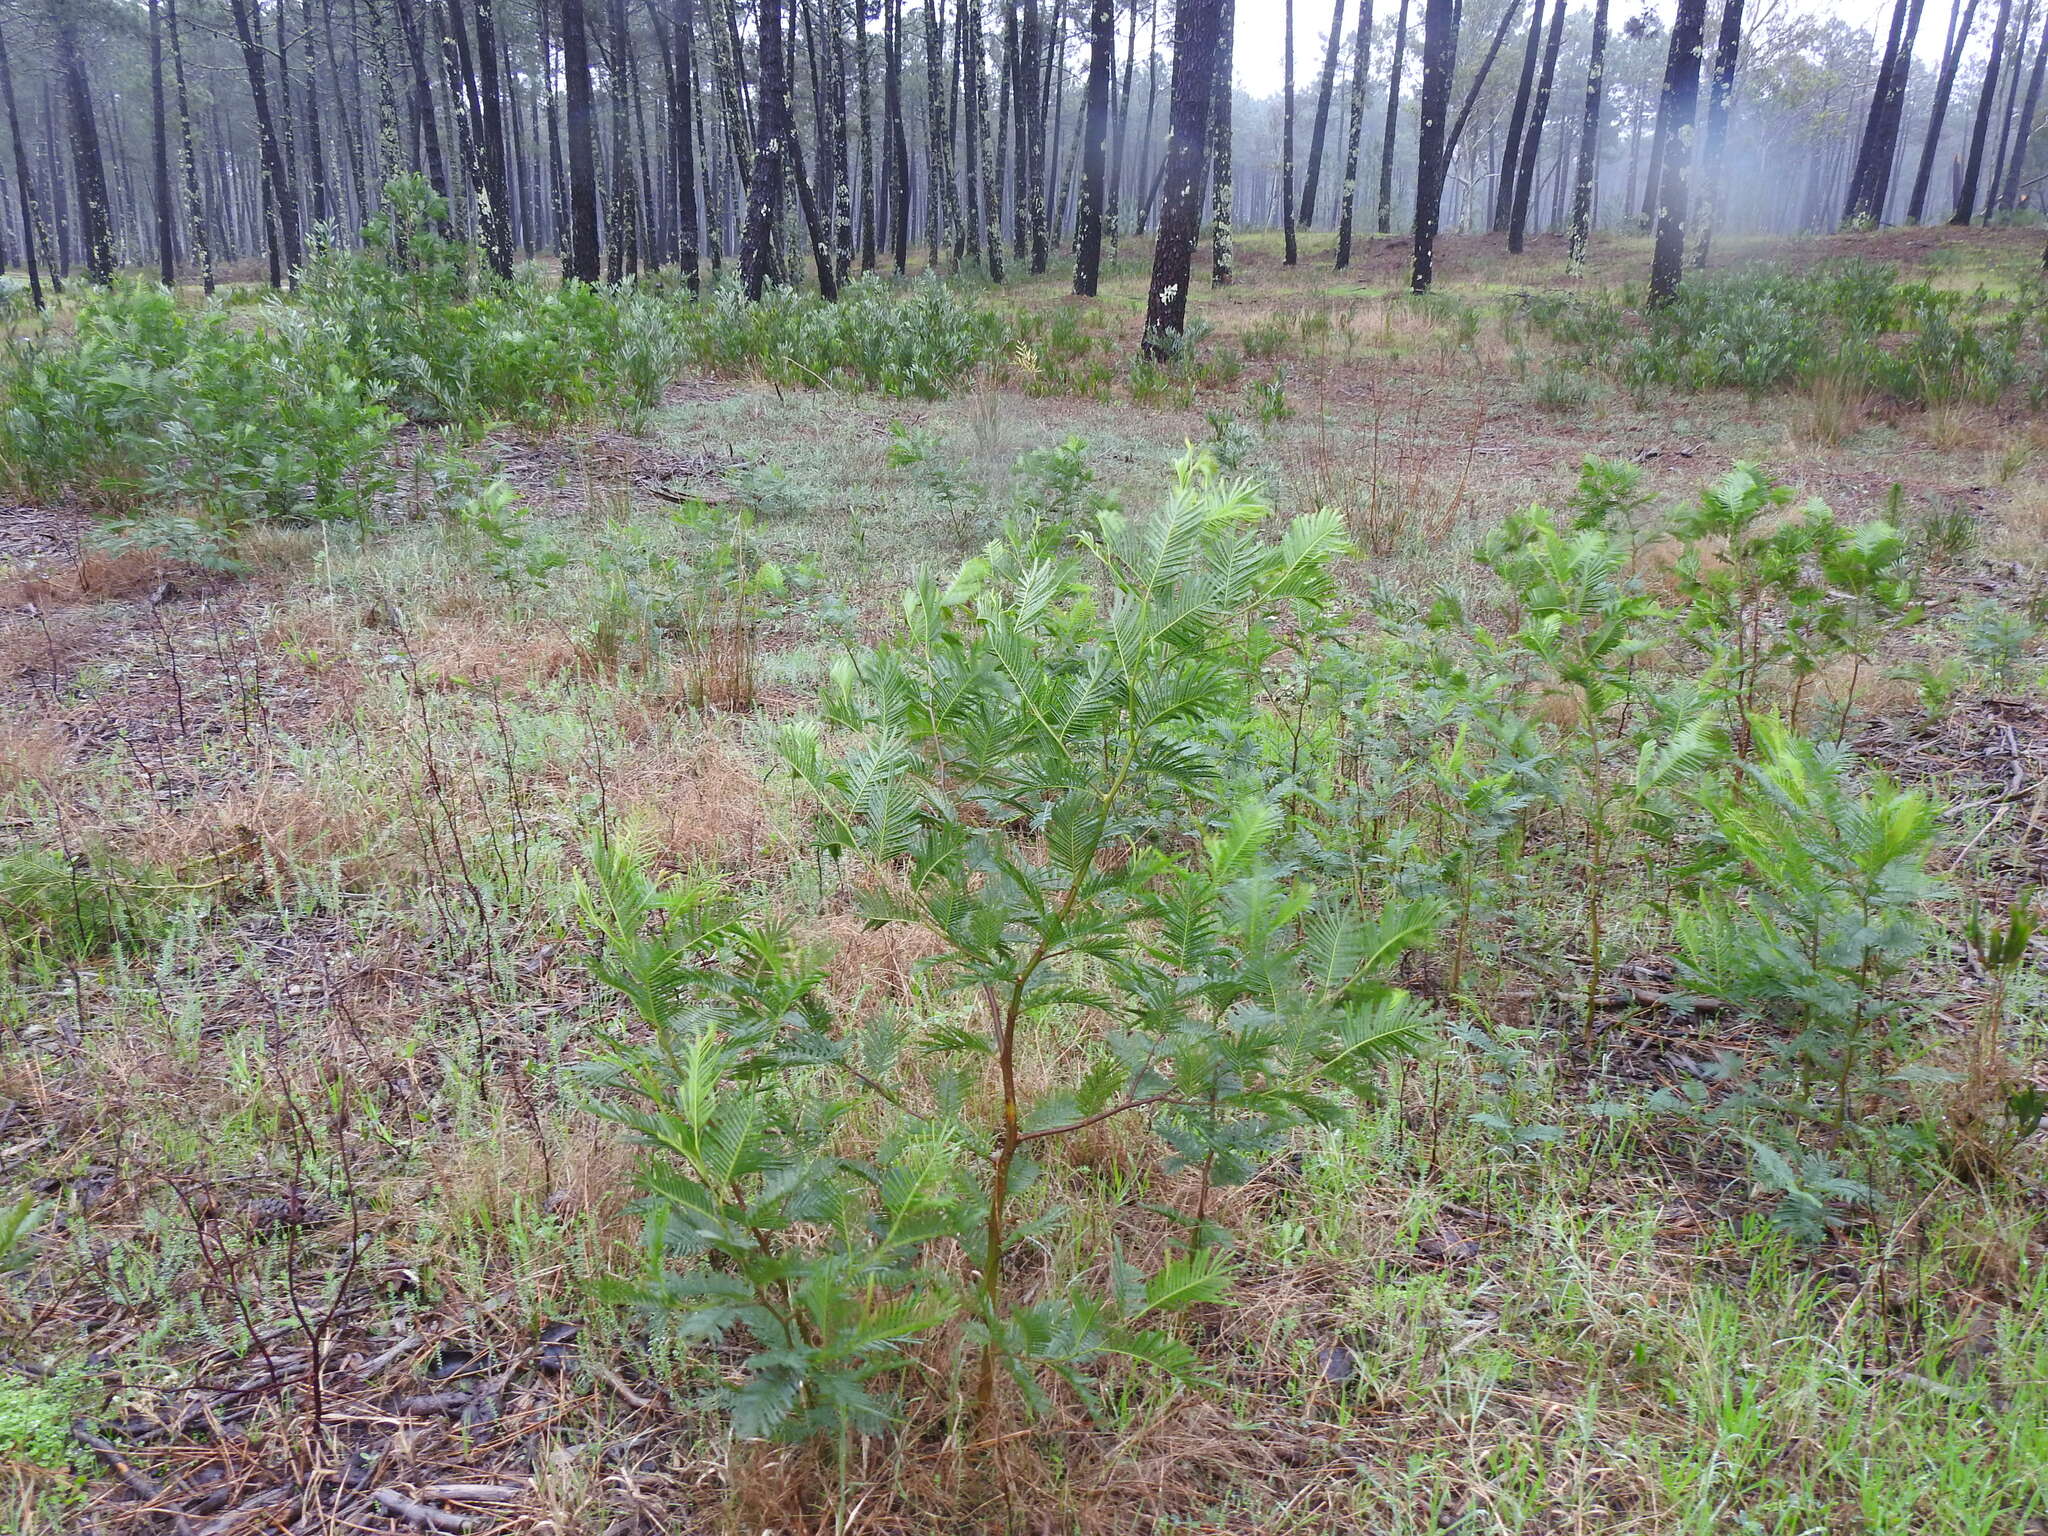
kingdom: Plantae
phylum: Tracheophyta
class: Magnoliopsida
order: Fabales
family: Fabaceae
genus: Acacia
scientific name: Acacia mearnsii
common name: Black wattle
